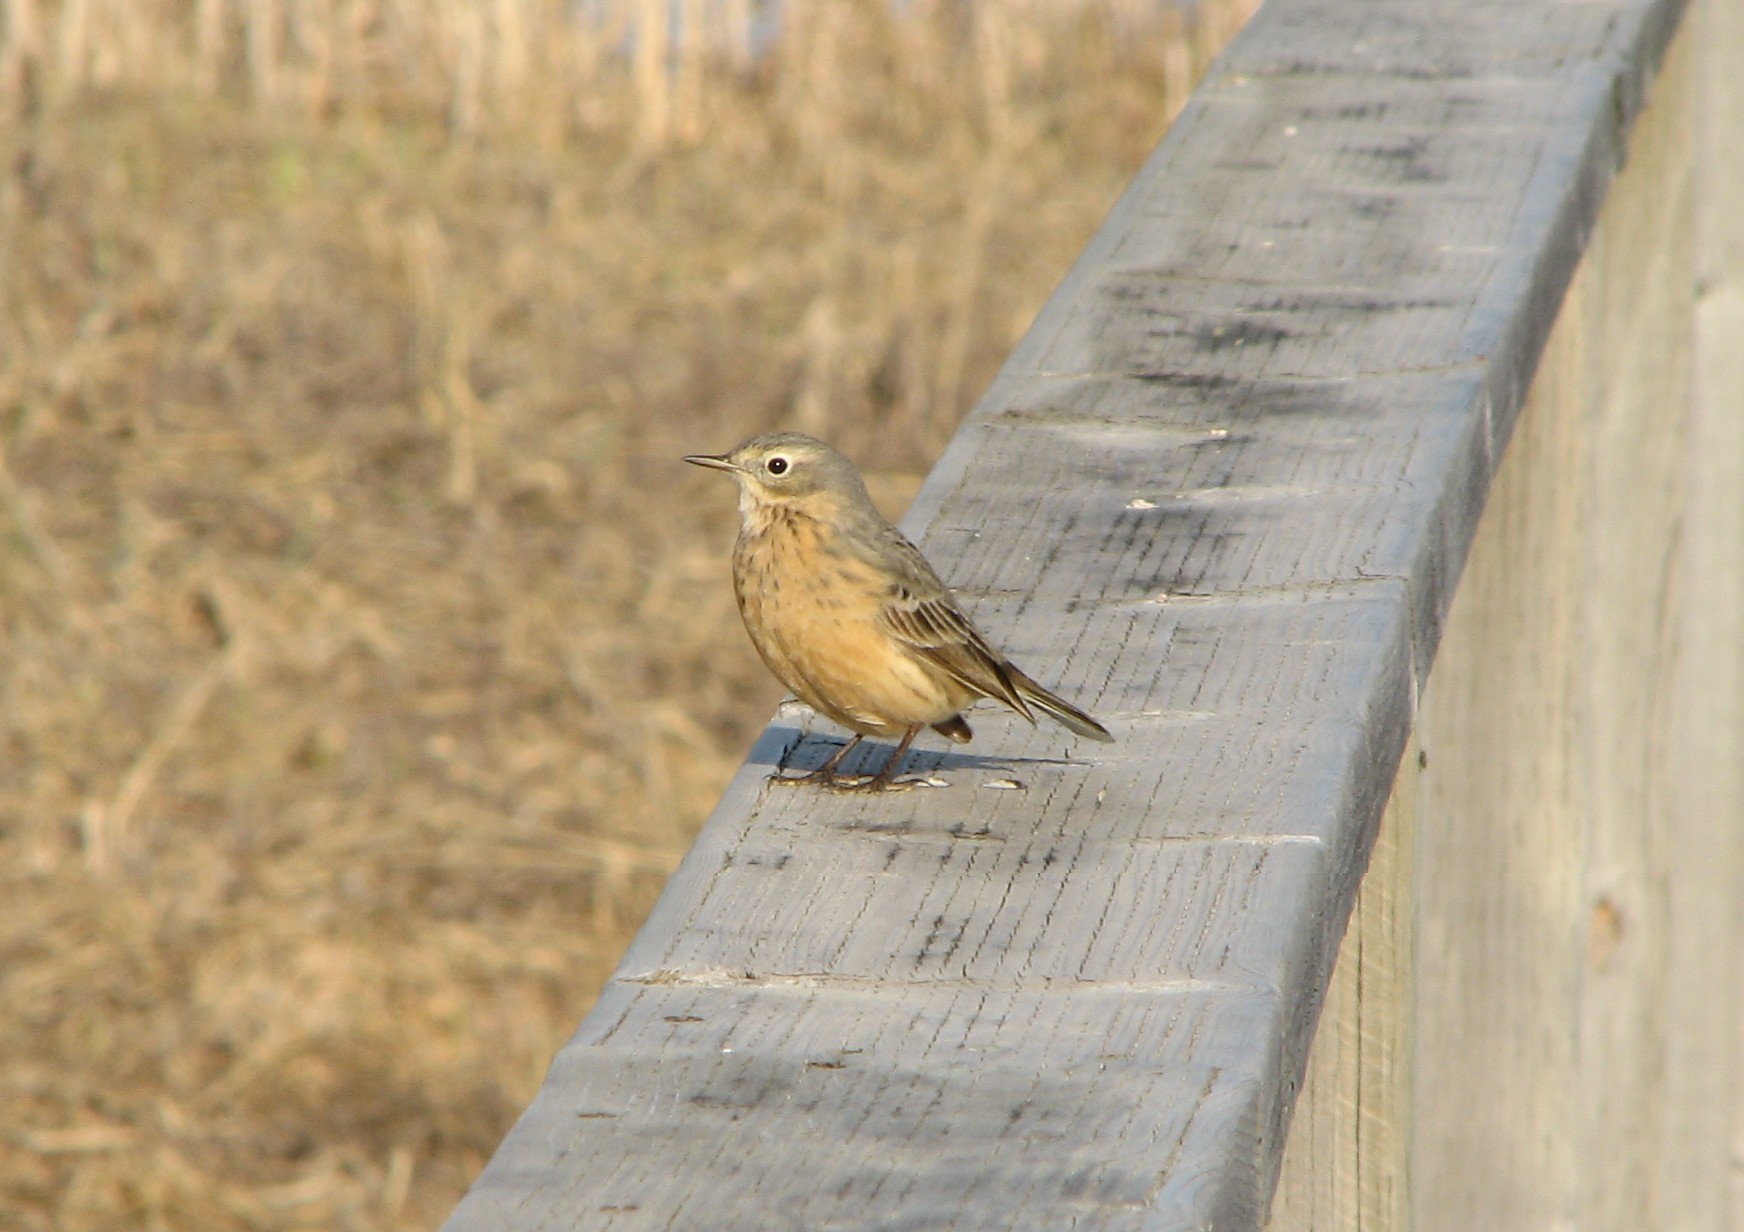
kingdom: Animalia
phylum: Chordata
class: Aves
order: Passeriformes
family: Motacillidae
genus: Anthus
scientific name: Anthus rubescens
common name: Buff-bellied pipit
